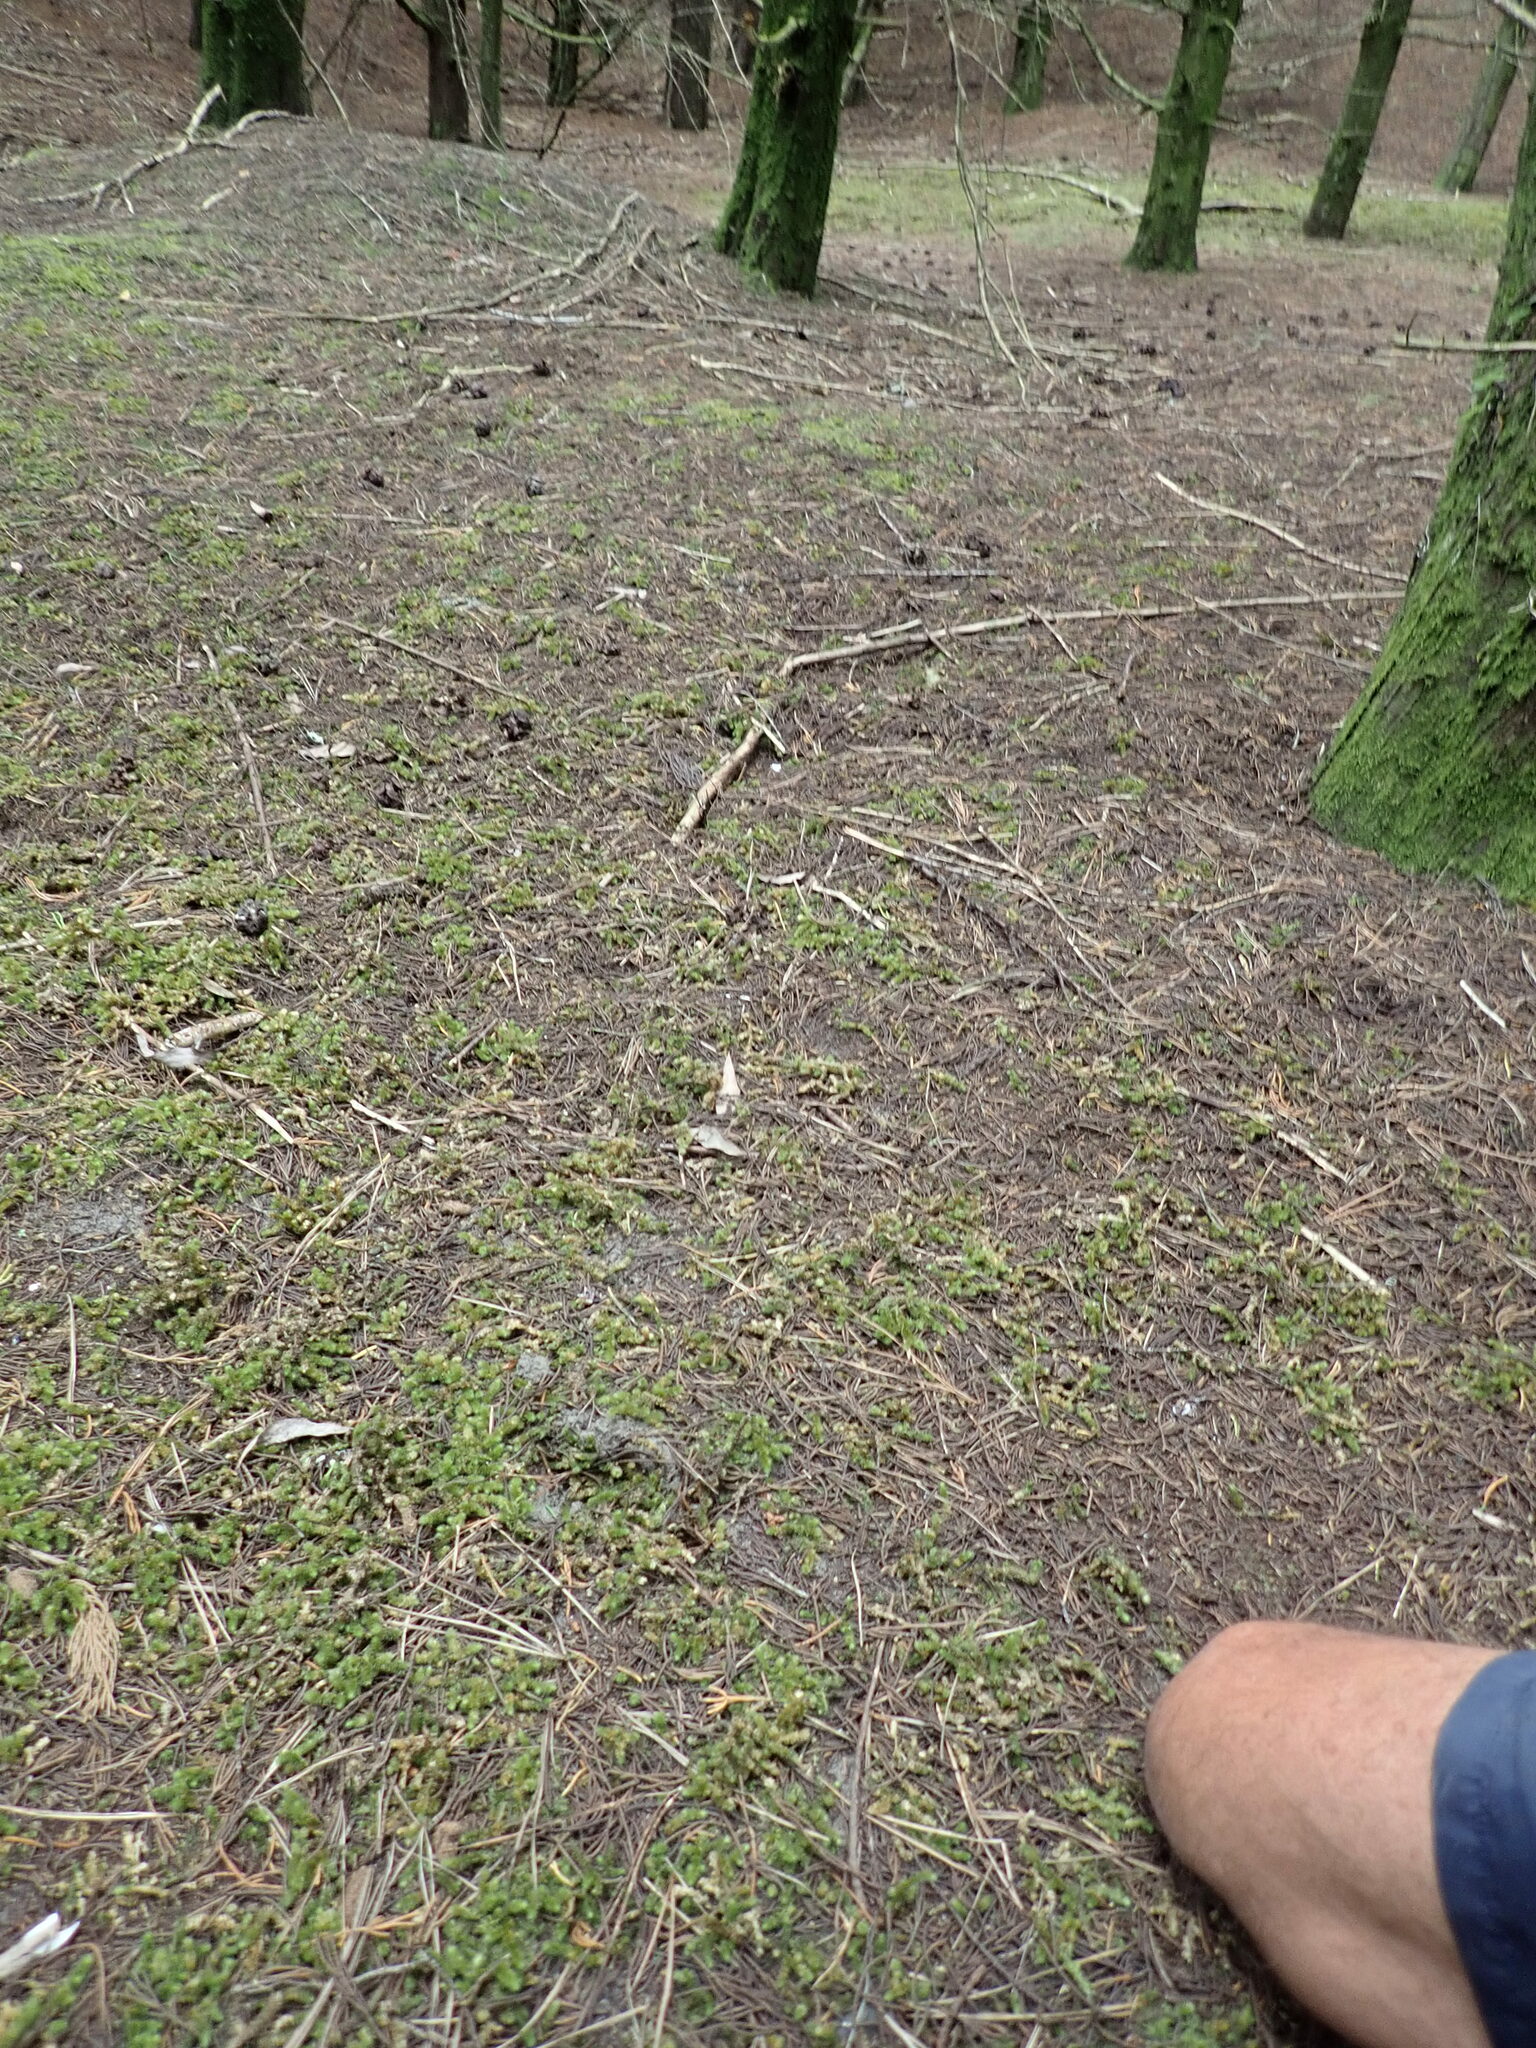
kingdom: Plantae
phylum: Bryophyta
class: Bryopsida
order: Ptychomniales
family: Ptychomniaceae
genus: Ptychomnion
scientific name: Ptychomnion aciculare
